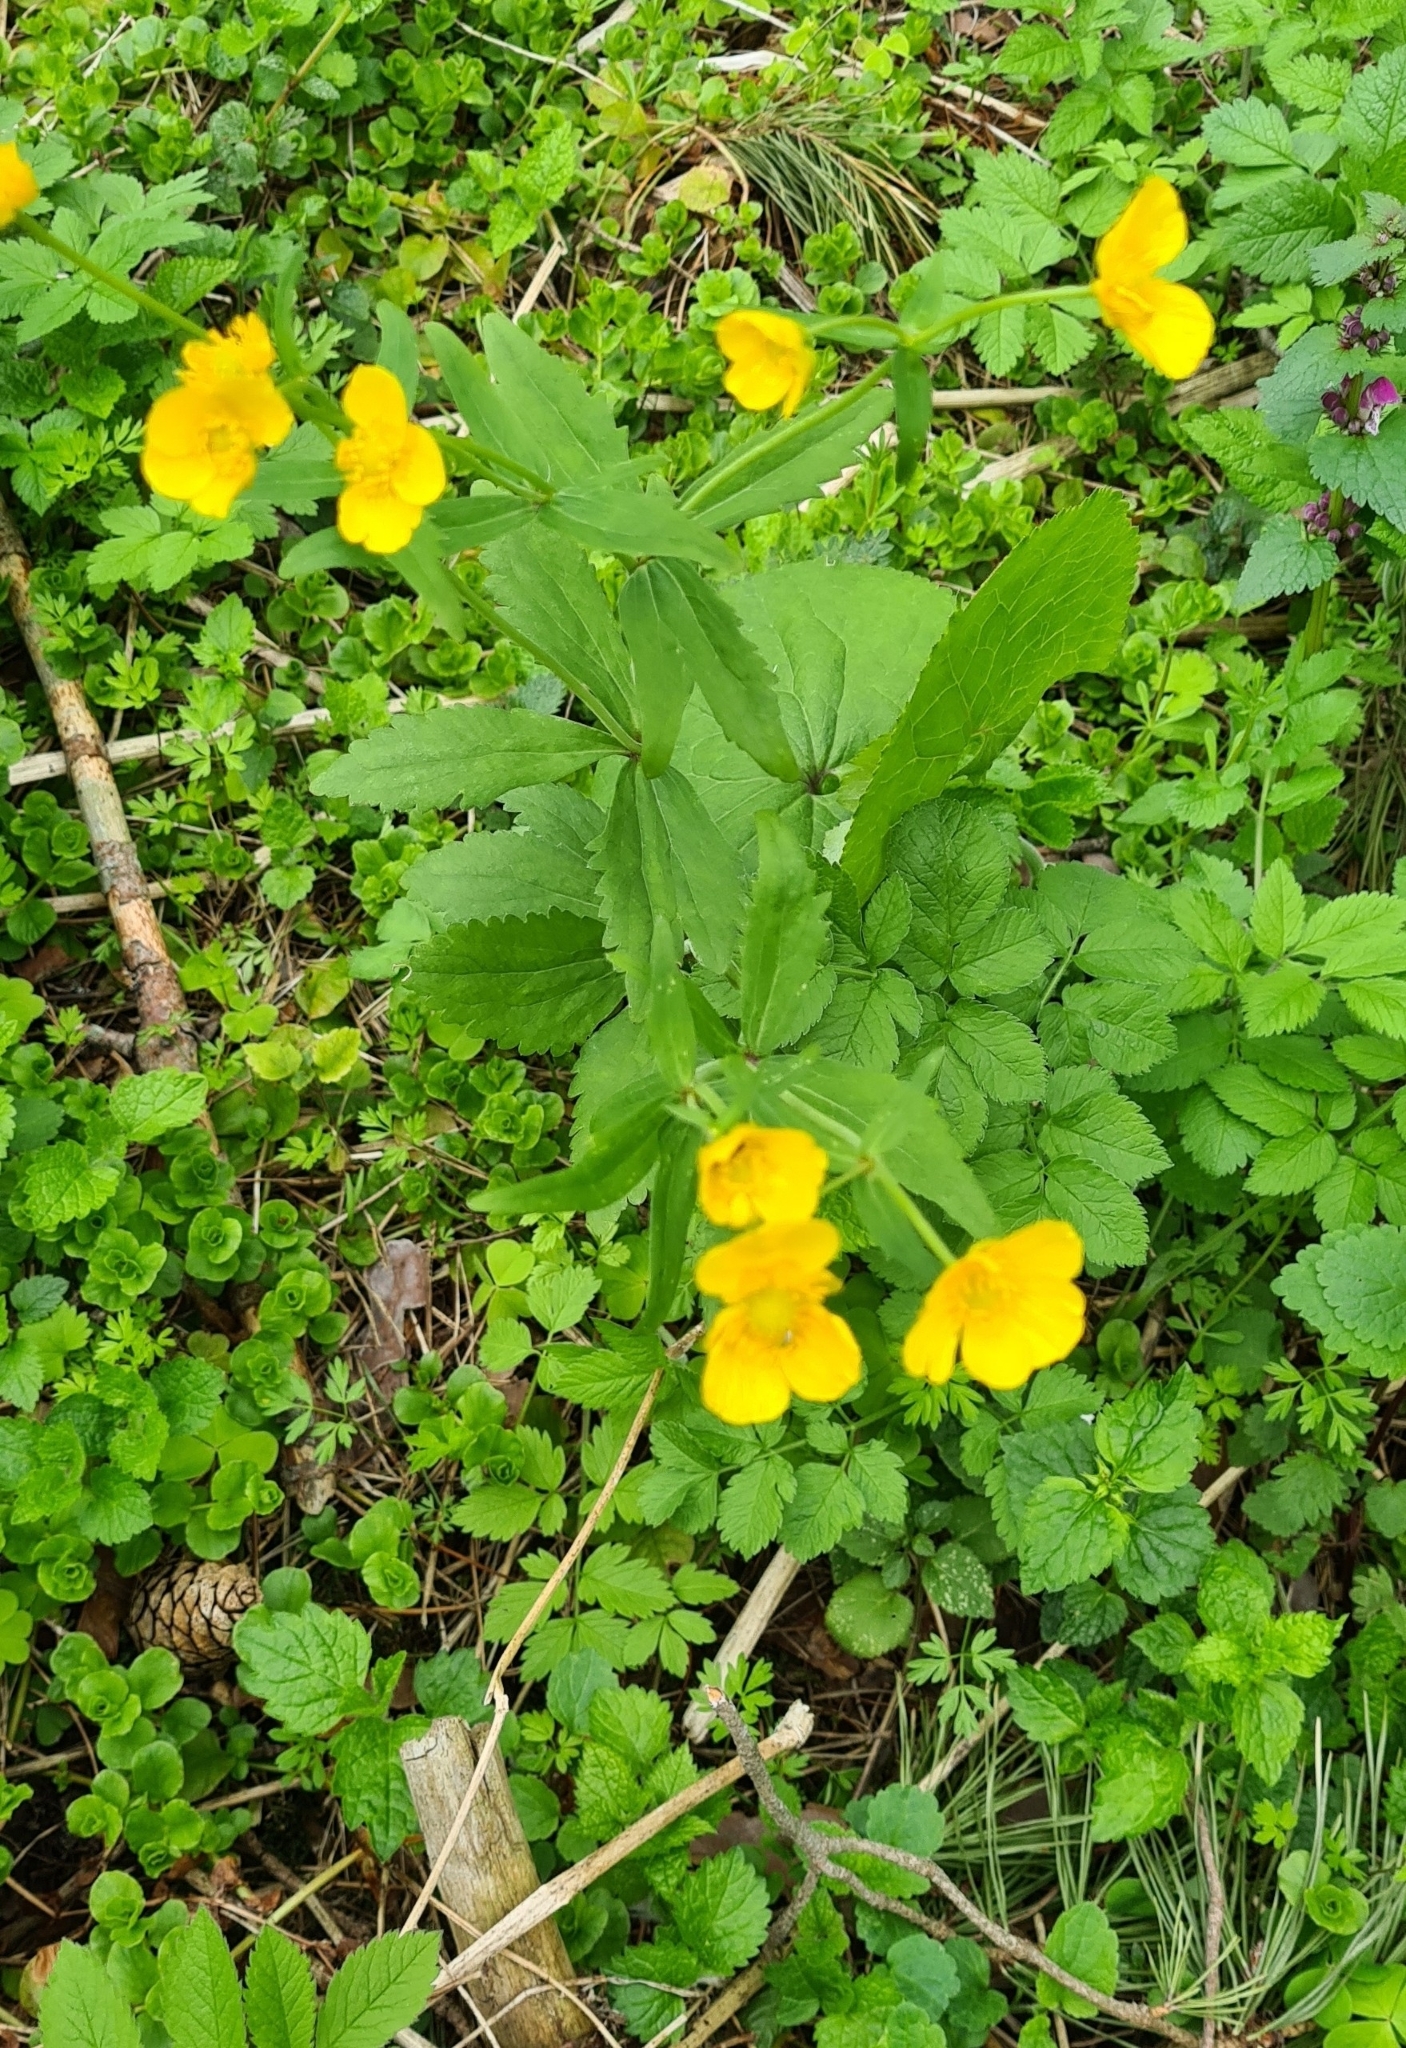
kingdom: Plantae
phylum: Tracheophyta
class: Magnoliopsida
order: Ranunculales
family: Ranunculaceae
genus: Ranunculus
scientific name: Ranunculus cassubicus
